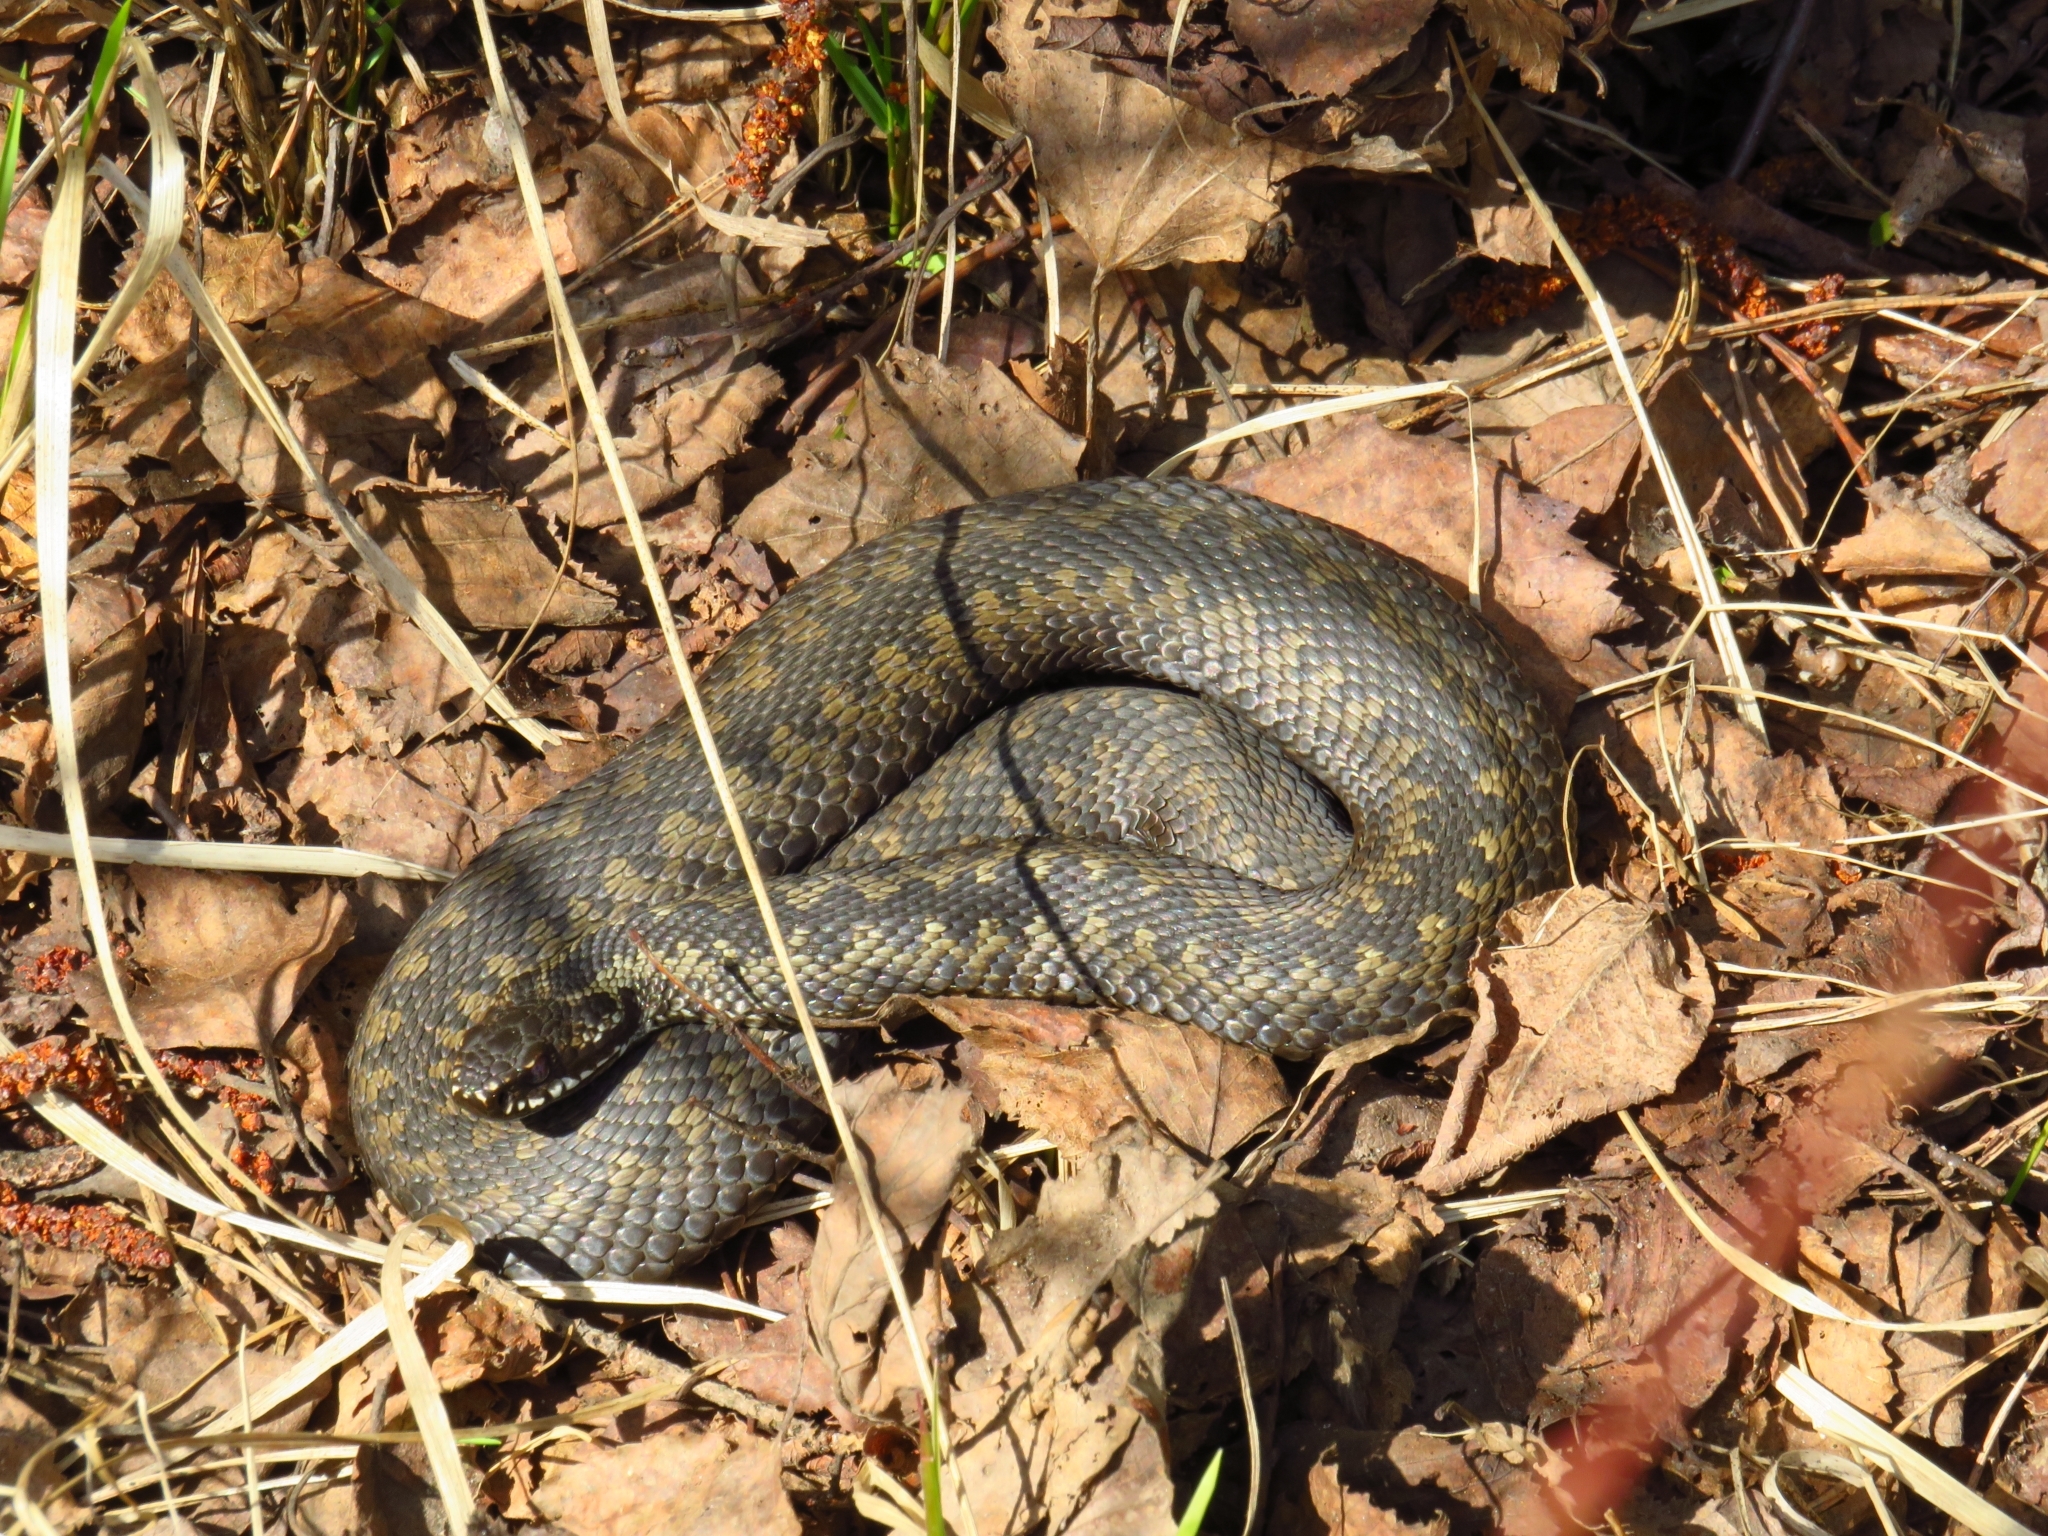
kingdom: Animalia
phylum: Chordata
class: Squamata
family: Viperidae
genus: Vipera
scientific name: Vipera berus
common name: Adder
